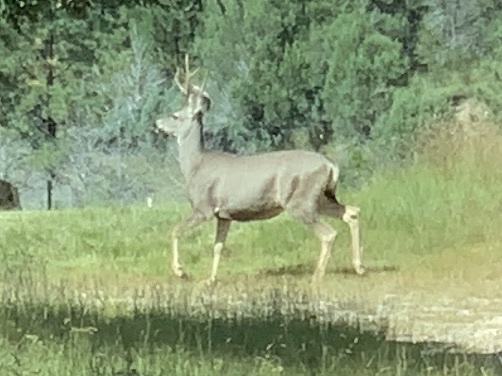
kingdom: Animalia
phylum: Chordata
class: Mammalia
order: Artiodactyla
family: Cervidae
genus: Odocoileus
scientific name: Odocoileus hemionus
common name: Mule deer
